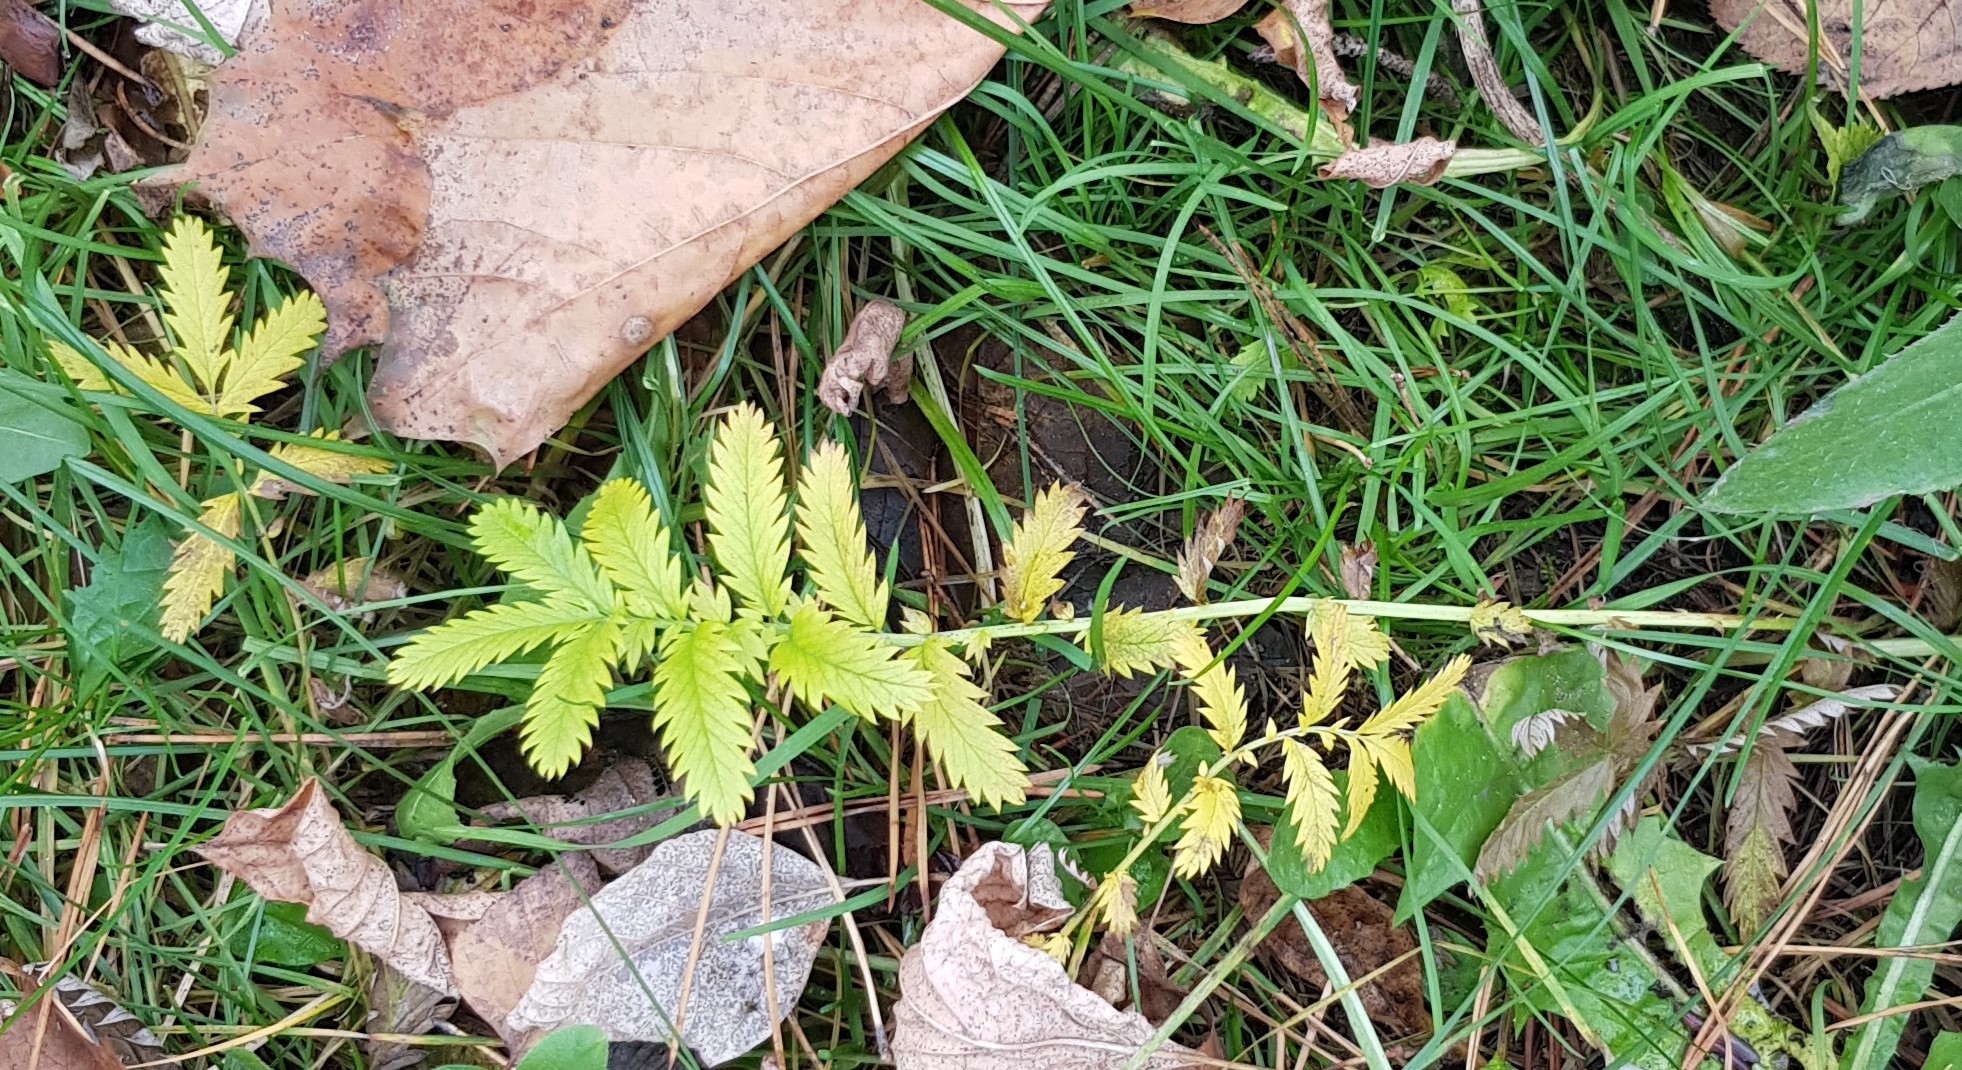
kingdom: Plantae
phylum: Tracheophyta
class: Magnoliopsida
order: Rosales
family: Rosaceae
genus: Argentina
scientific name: Argentina anserina
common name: Common silverweed
